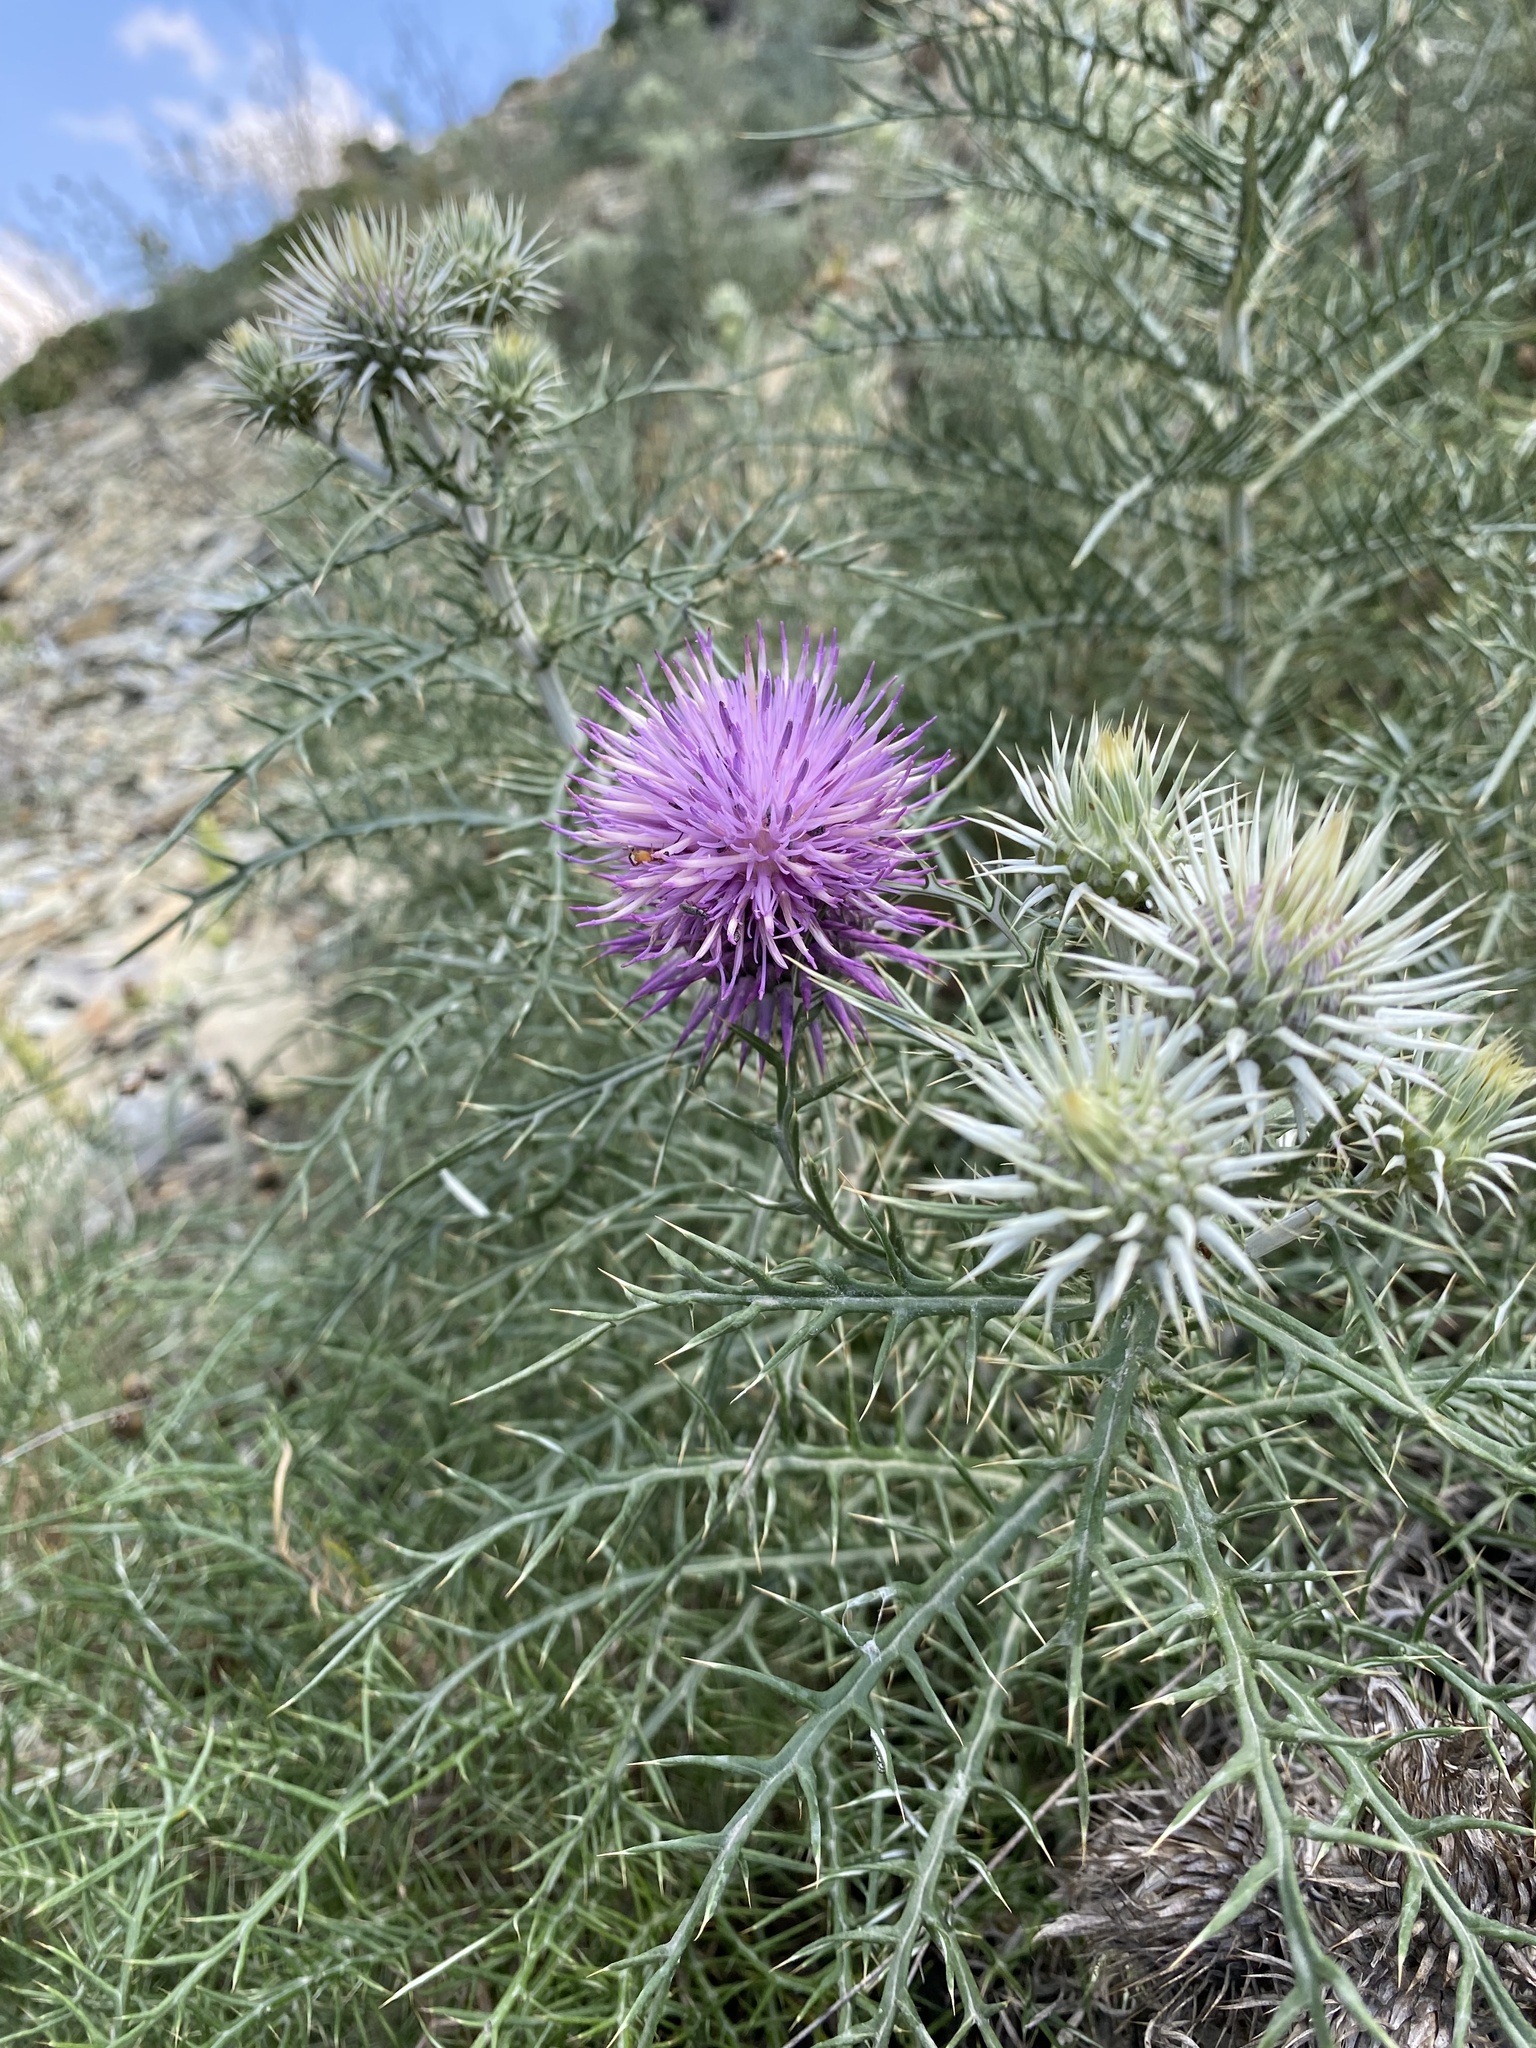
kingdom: Plantae
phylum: Tracheophyta
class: Magnoliopsida
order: Asterales
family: Asteraceae
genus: Ptilostemon
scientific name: Ptilostemon echinocephalus
